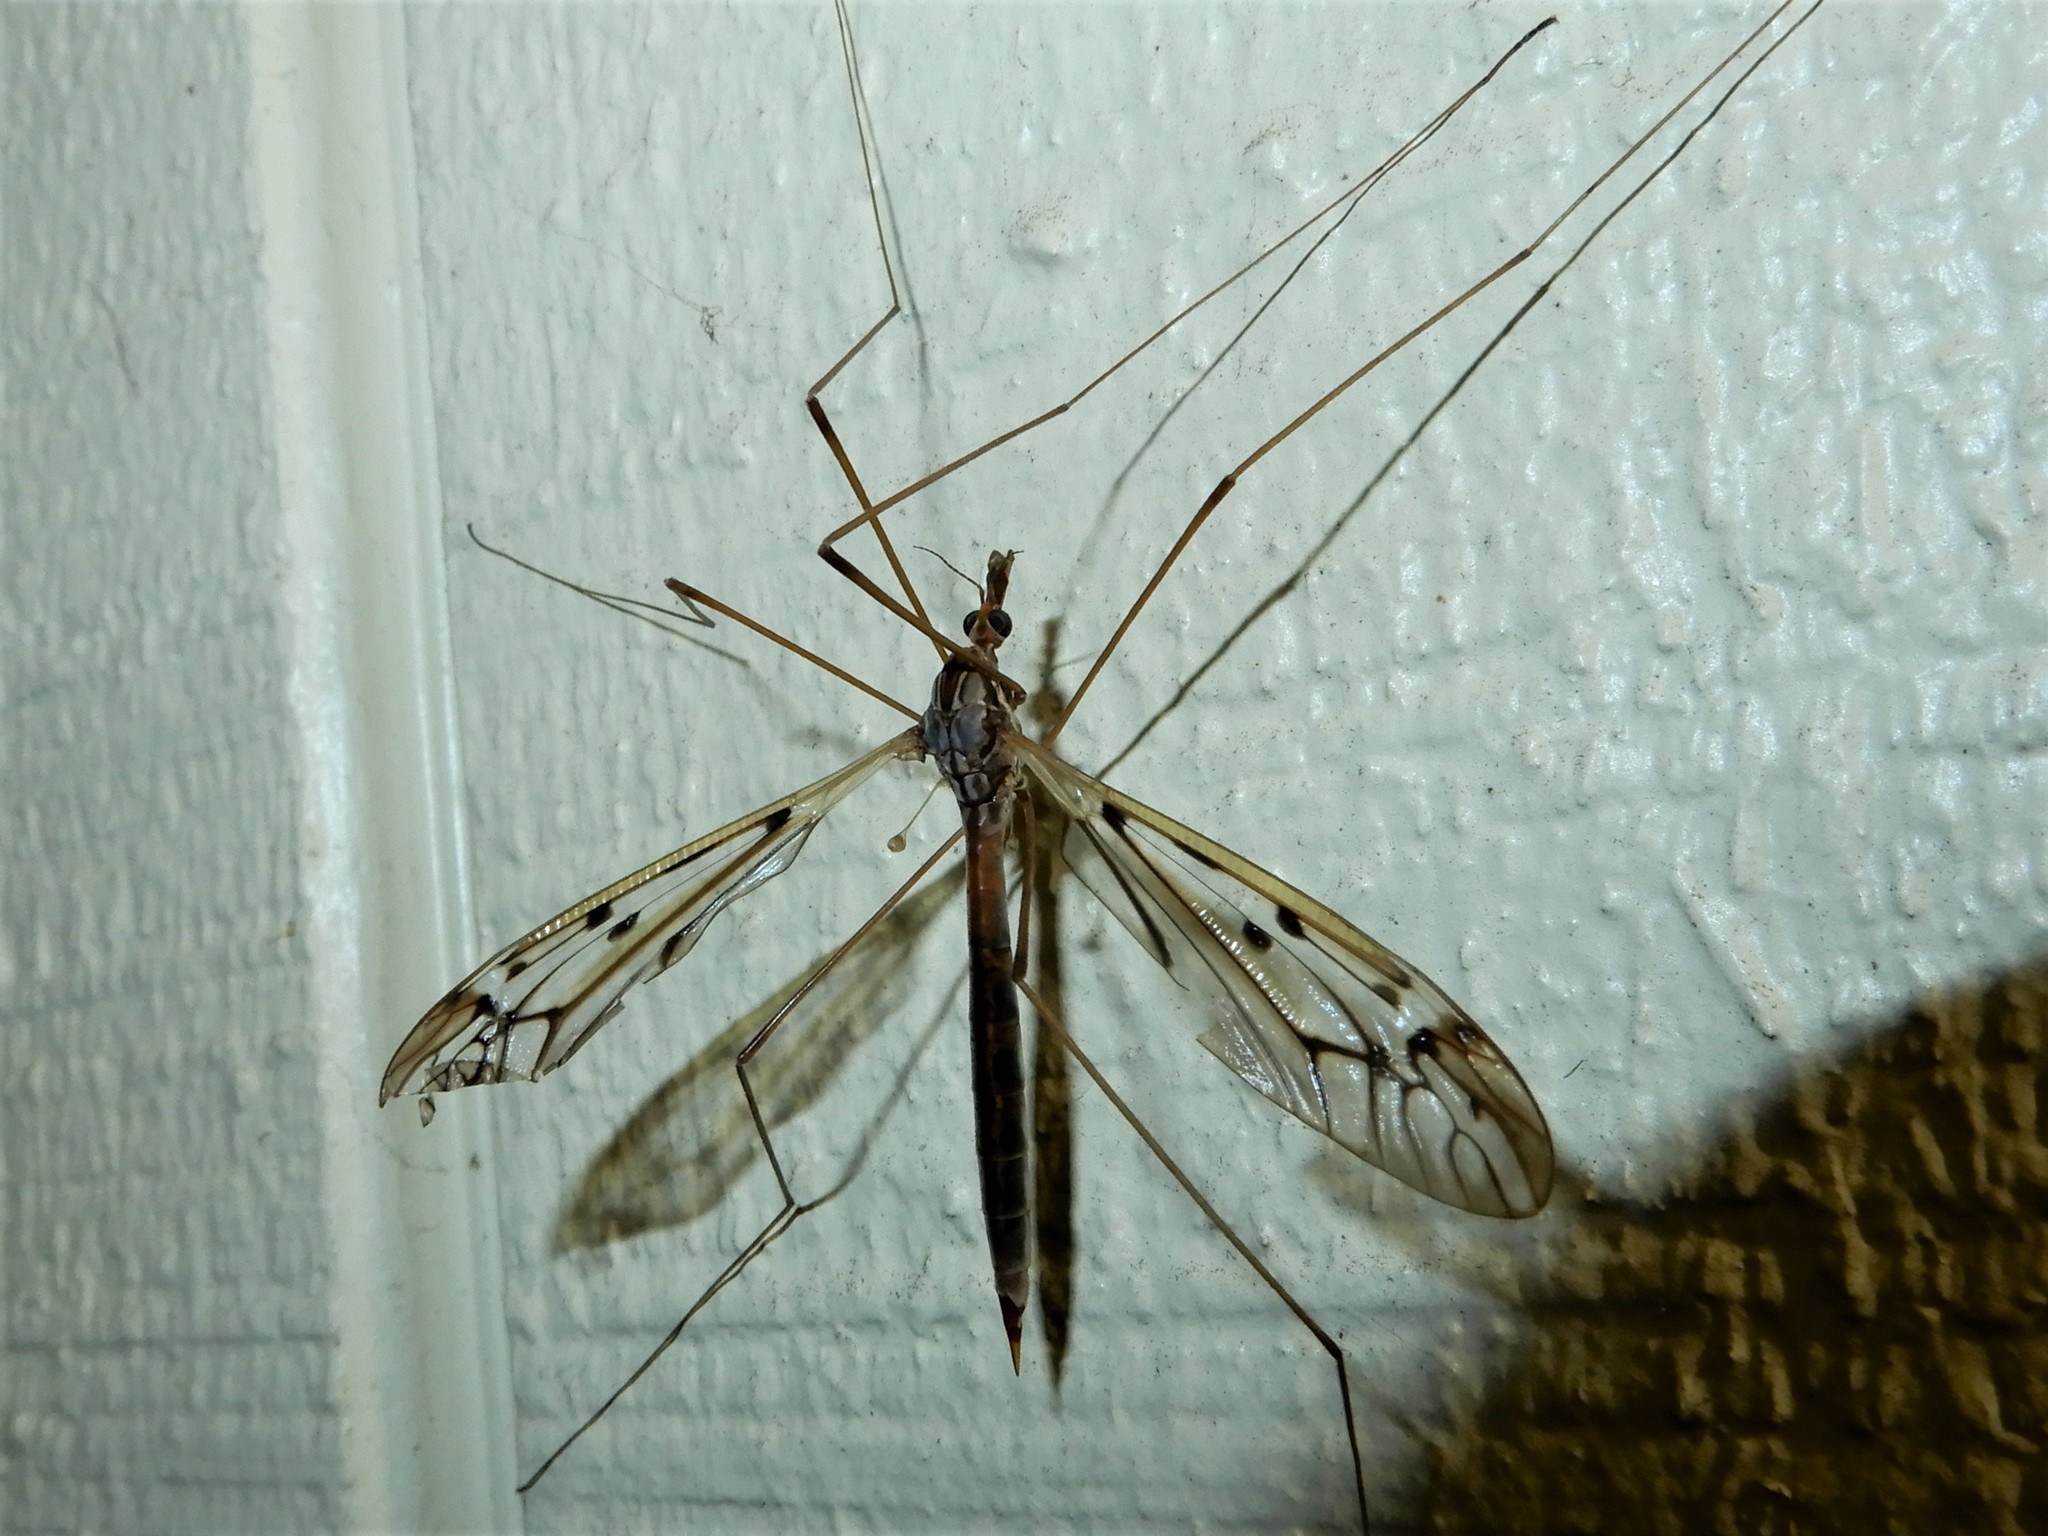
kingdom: Animalia
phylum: Arthropoda
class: Insecta
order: Diptera
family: Tipulidae
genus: Zelandotipula
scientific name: Zelandotipula novarae
